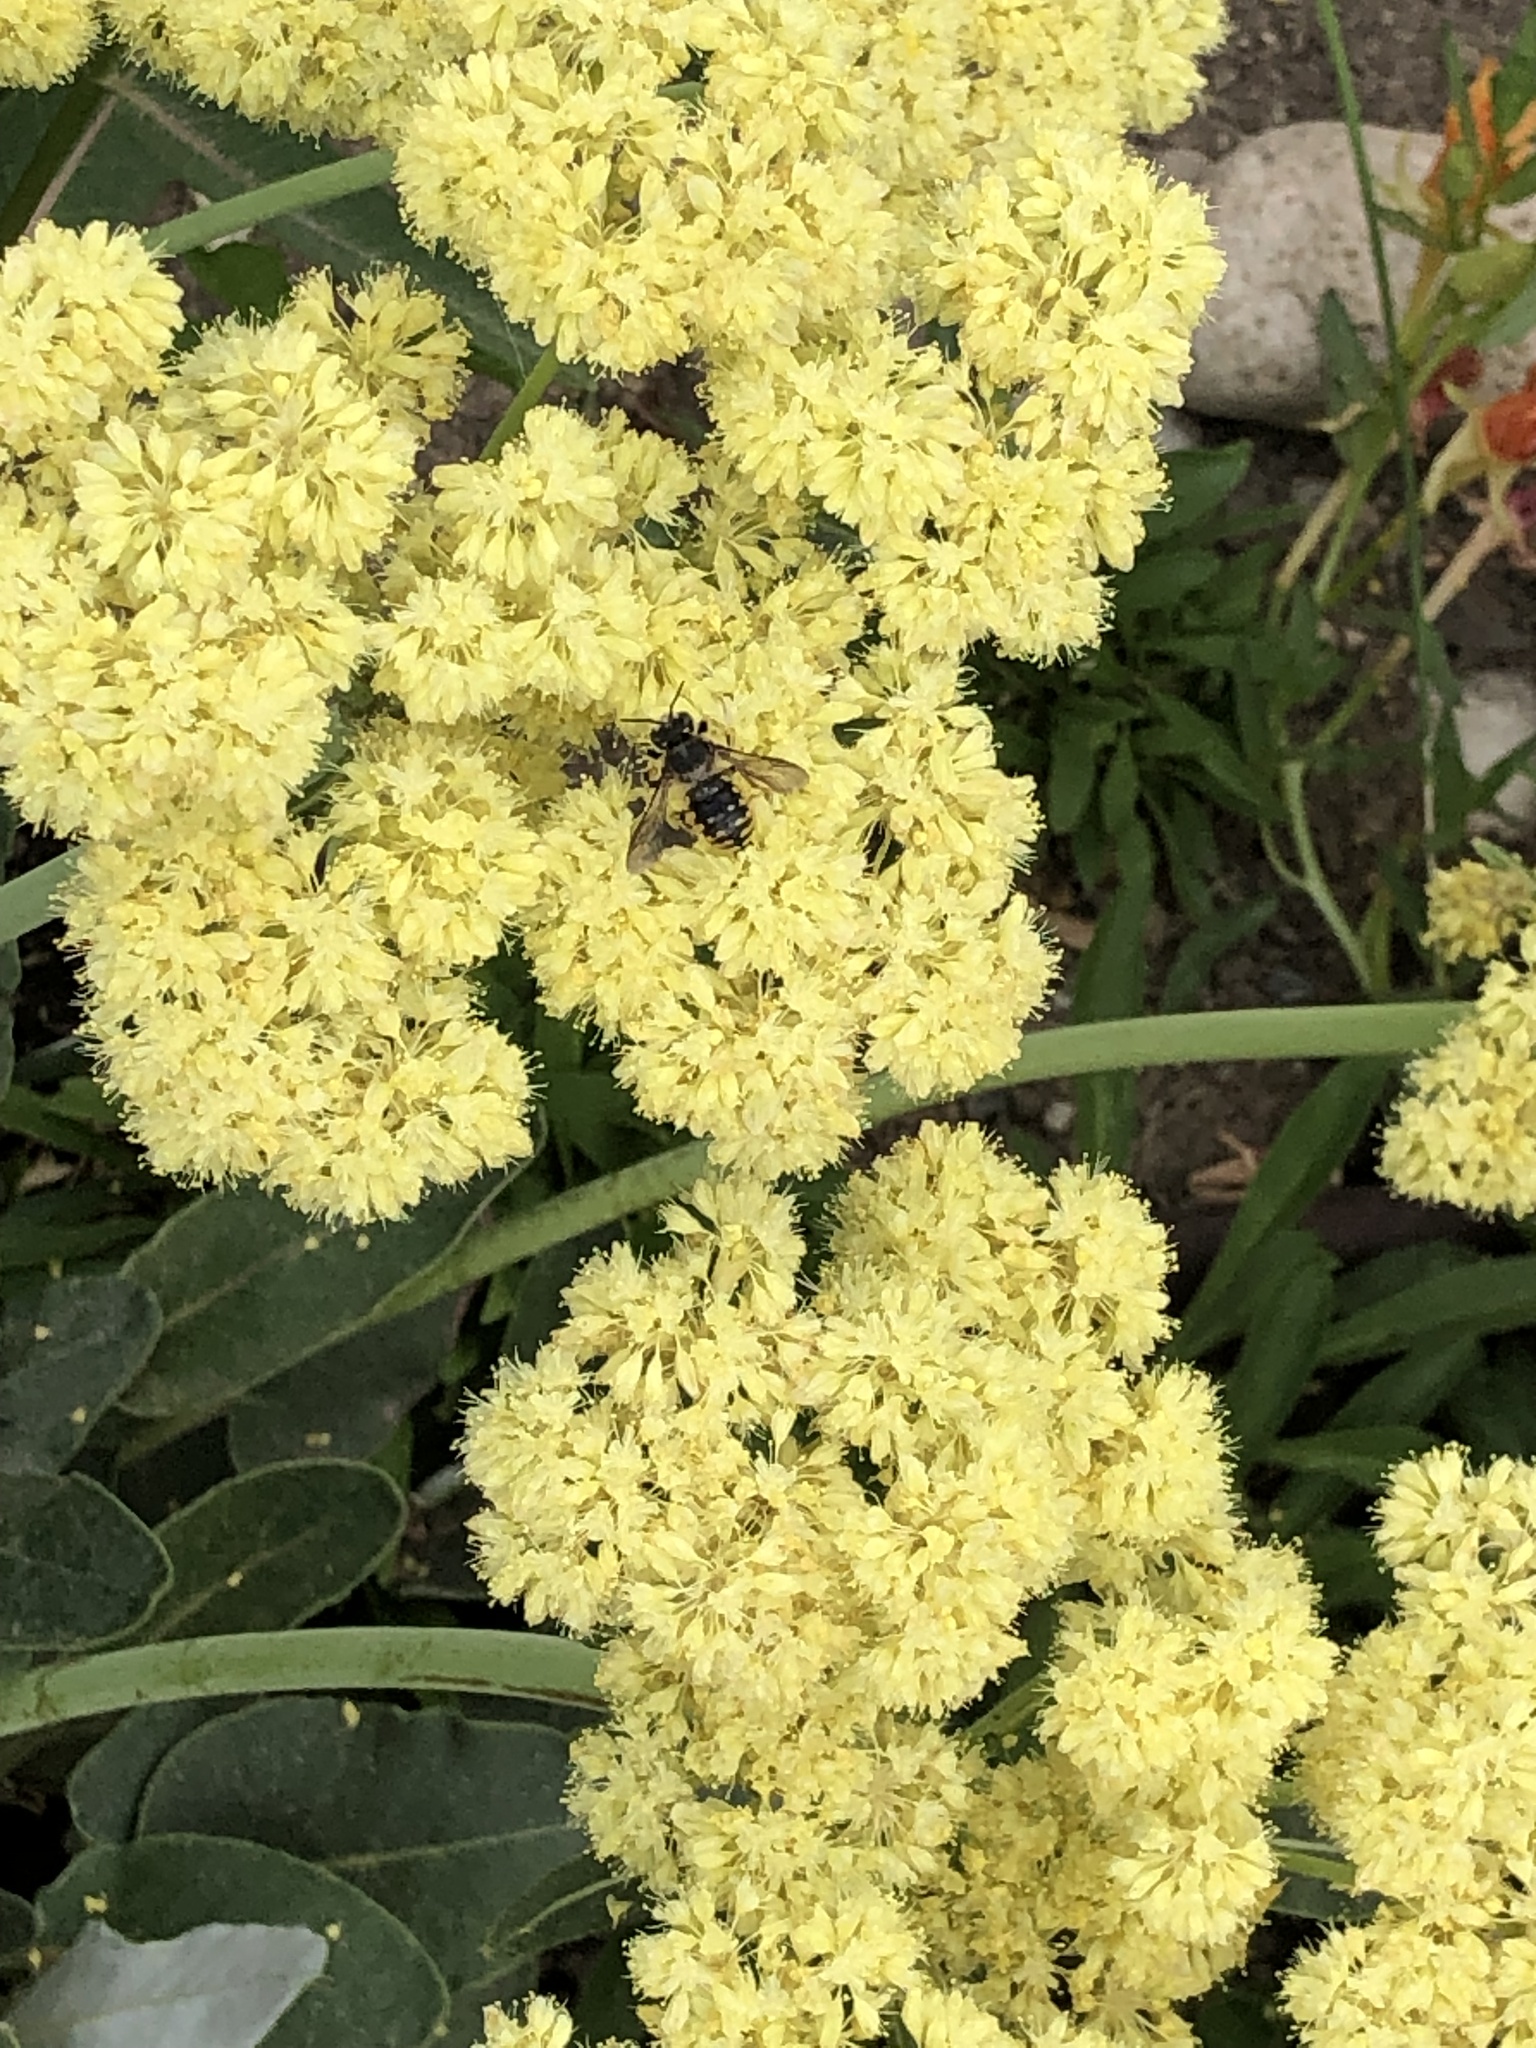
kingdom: Animalia
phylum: Arthropoda
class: Insecta
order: Hymenoptera
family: Megachilidae
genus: Anthidium
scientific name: Anthidium manicatum
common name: Wool carder bee
